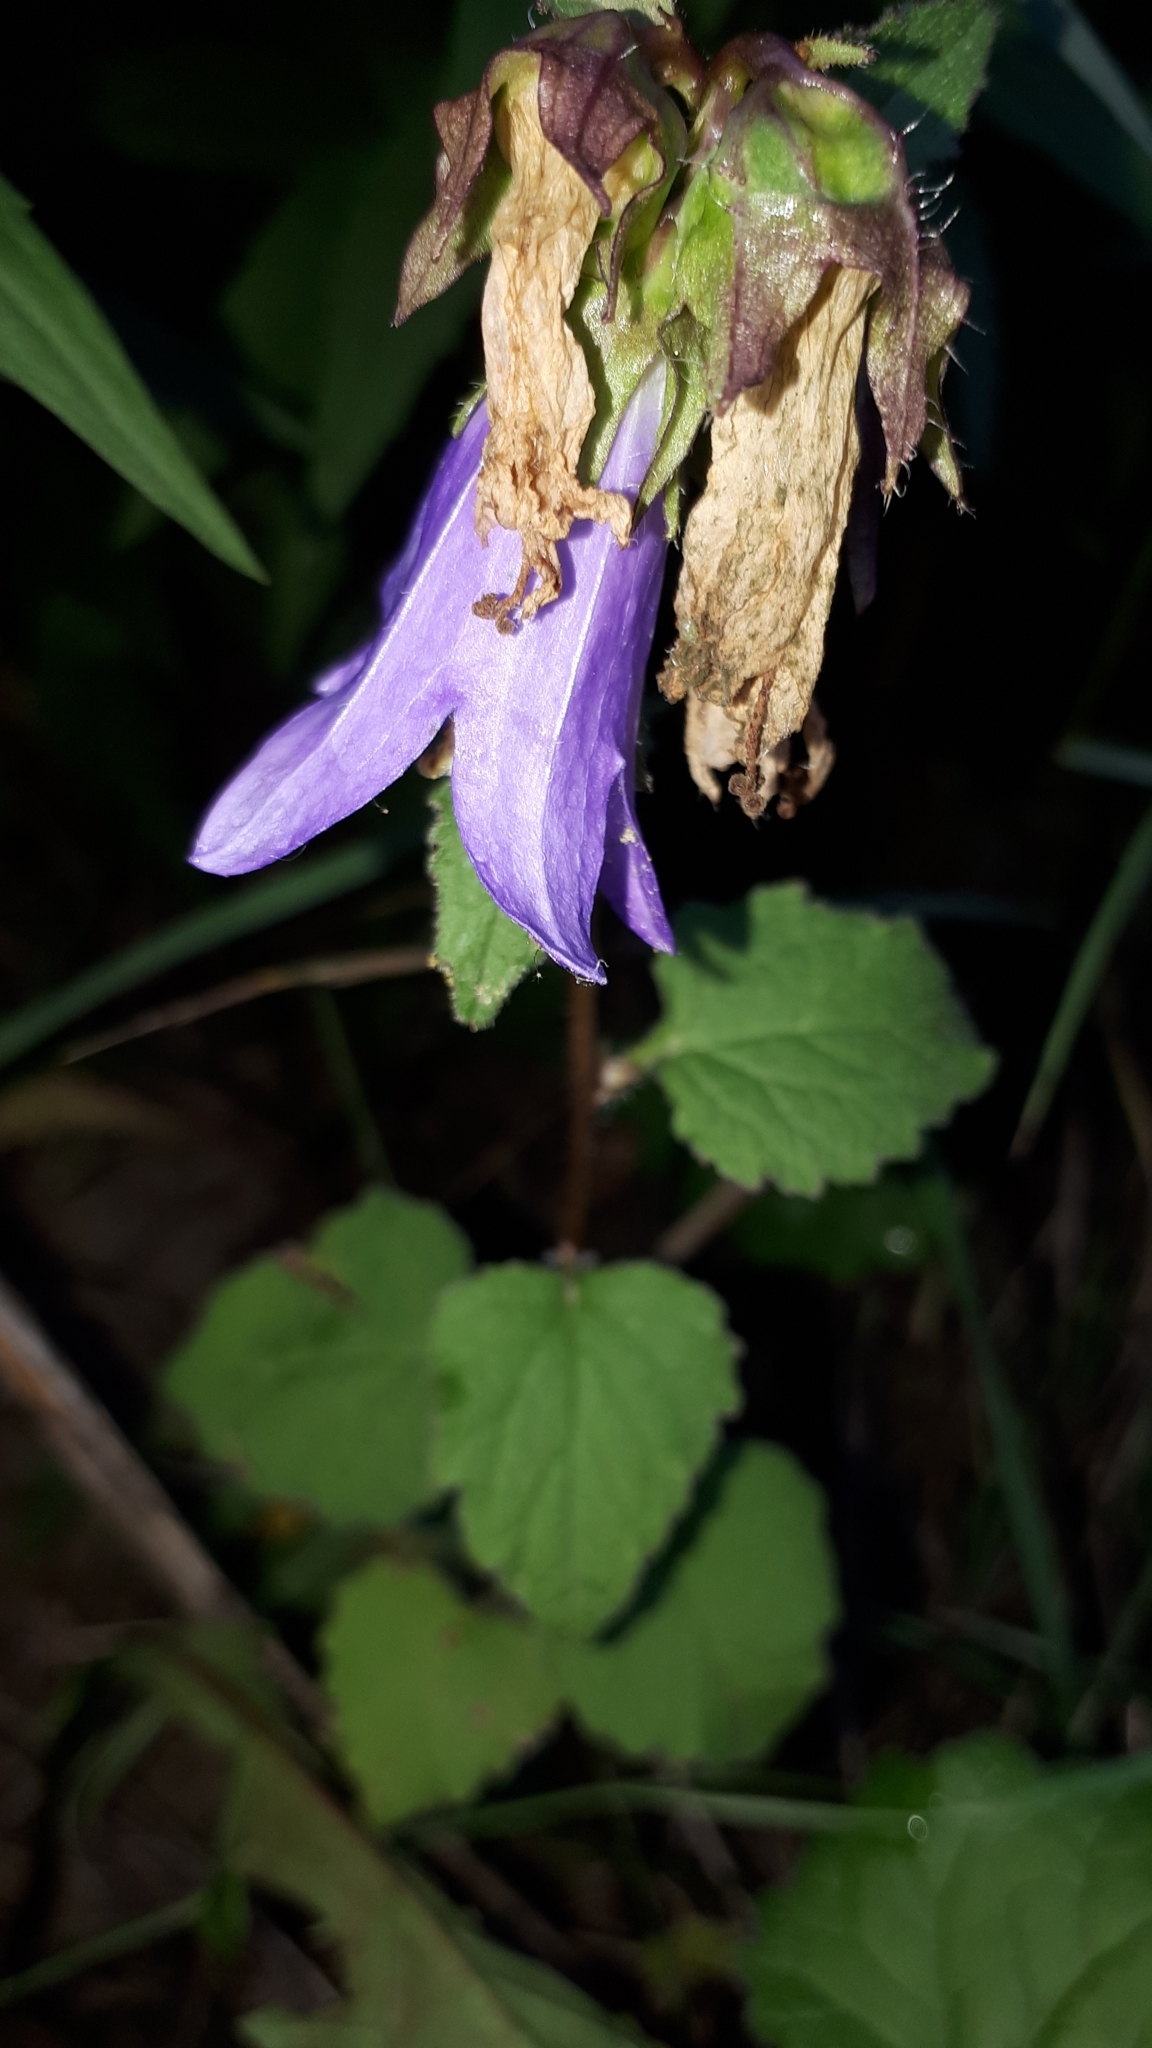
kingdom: Plantae
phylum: Tracheophyta
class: Magnoliopsida
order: Asterales
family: Campanulaceae
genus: Campanula
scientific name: Campanula trachelium
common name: Nettle-leaved bellflower
